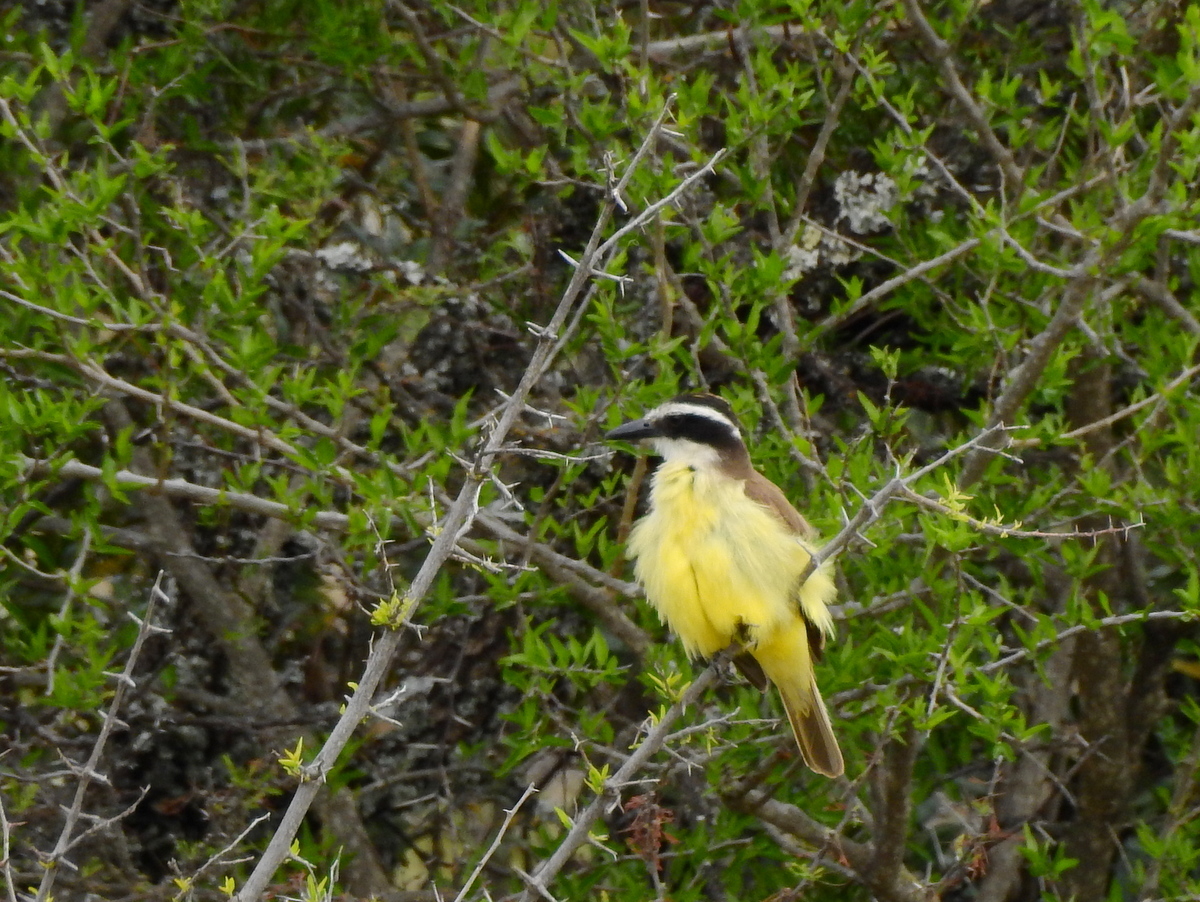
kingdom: Animalia
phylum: Chordata
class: Aves
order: Passeriformes
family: Tyrannidae
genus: Pitangus
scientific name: Pitangus sulphuratus
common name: Great kiskadee
